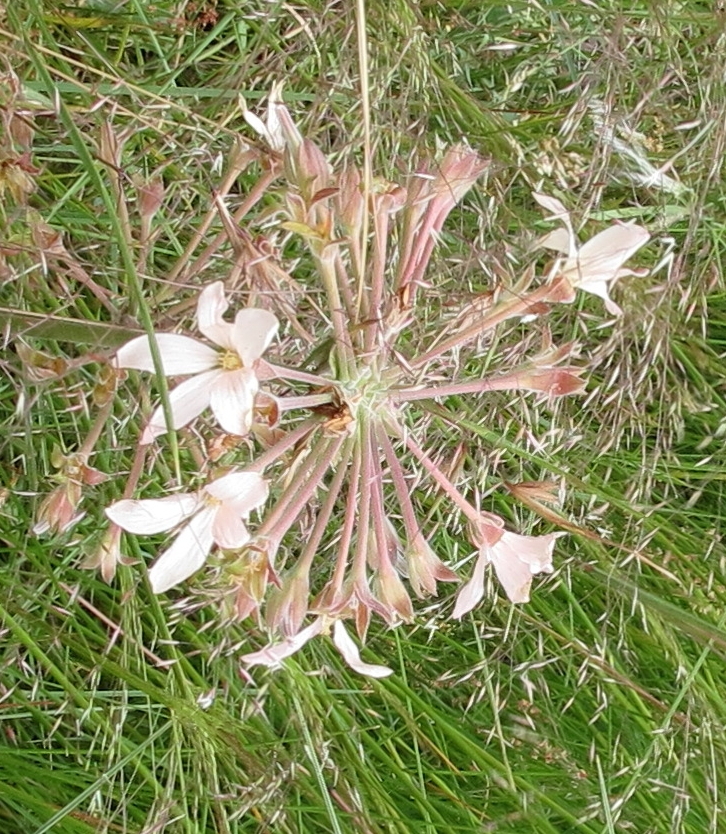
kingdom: Plantae
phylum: Tracheophyta
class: Magnoliopsida
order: Geraniales
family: Geraniaceae
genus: Pelargonium
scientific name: Pelargonium luridum
